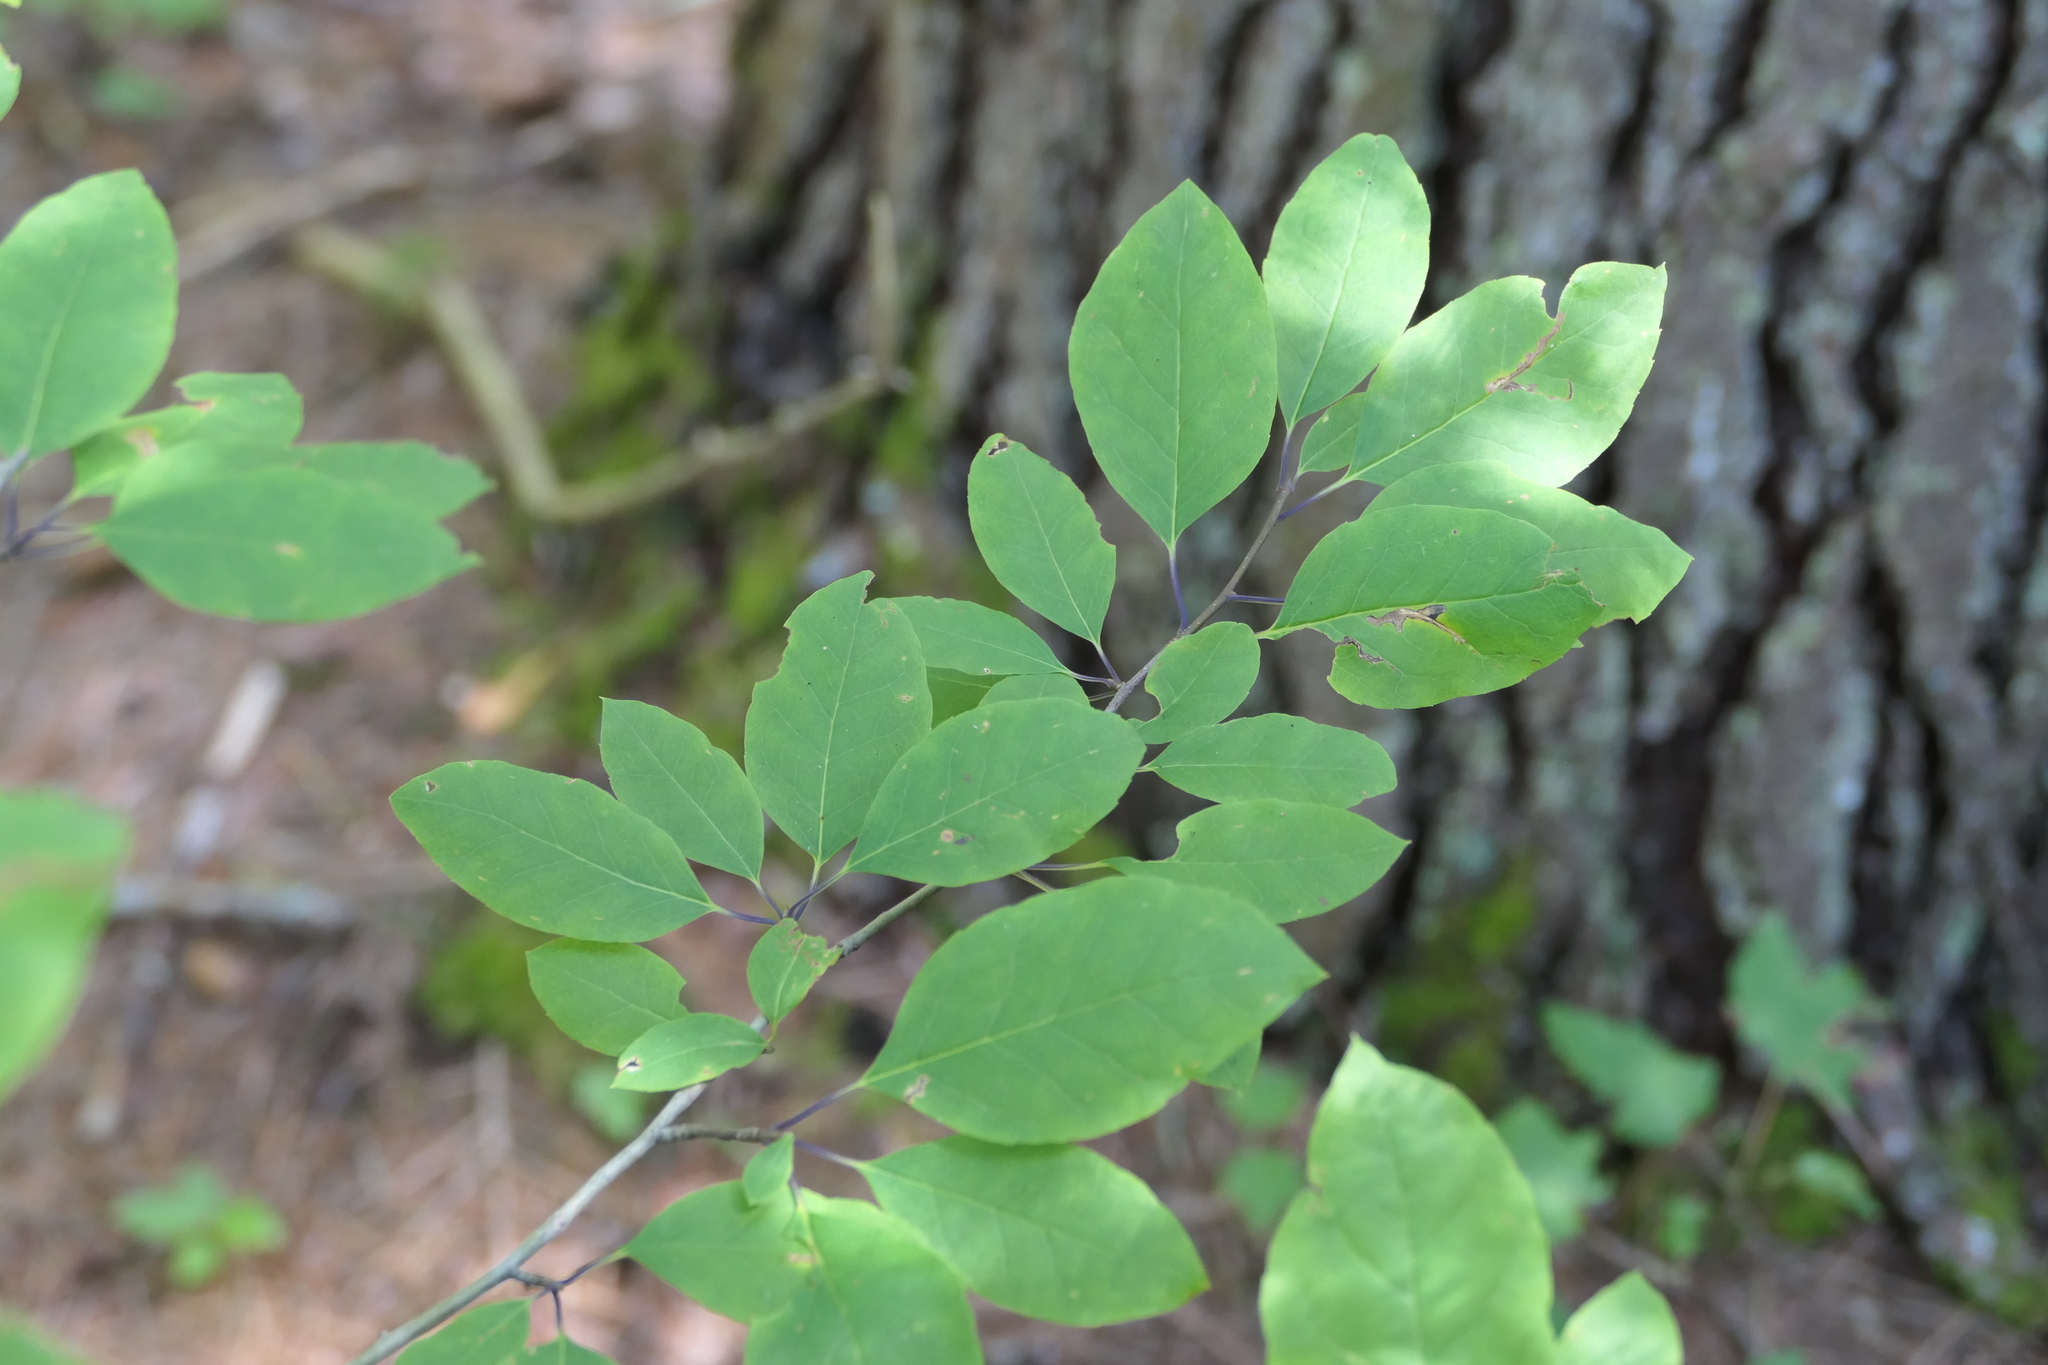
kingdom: Plantae
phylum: Tracheophyta
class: Magnoliopsida
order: Aquifoliales
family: Aquifoliaceae
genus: Ilex
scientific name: Ilex mucronata
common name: Catberry
